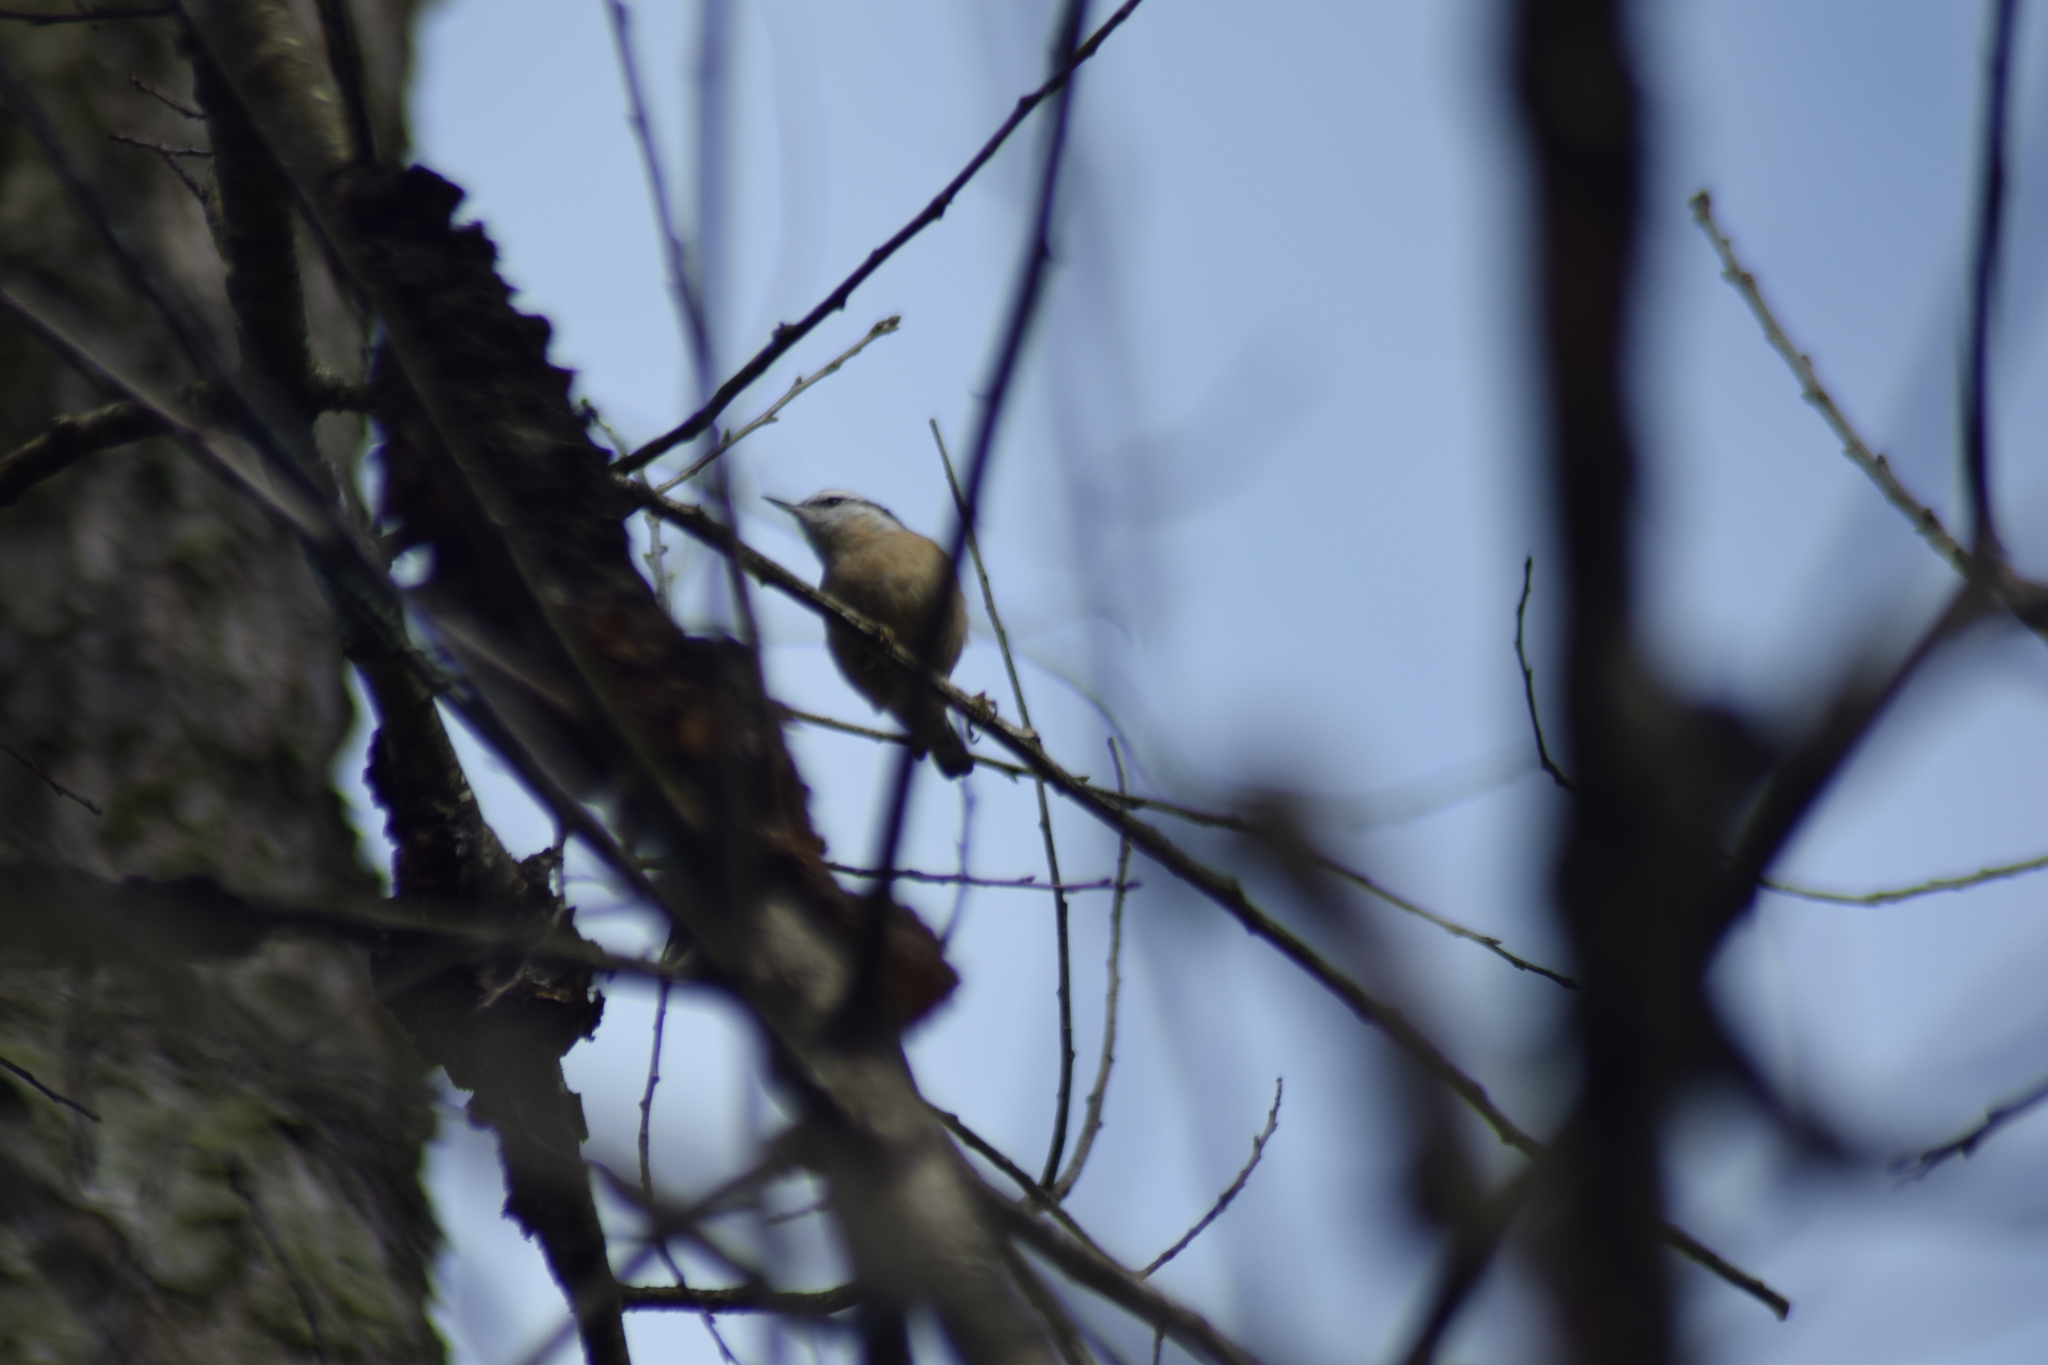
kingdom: Animalia
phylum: Chordata
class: Aves
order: Passeriformes
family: Sittidae
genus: Sitta
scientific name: Sitta canadensis
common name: Red-breasted nuthatch
